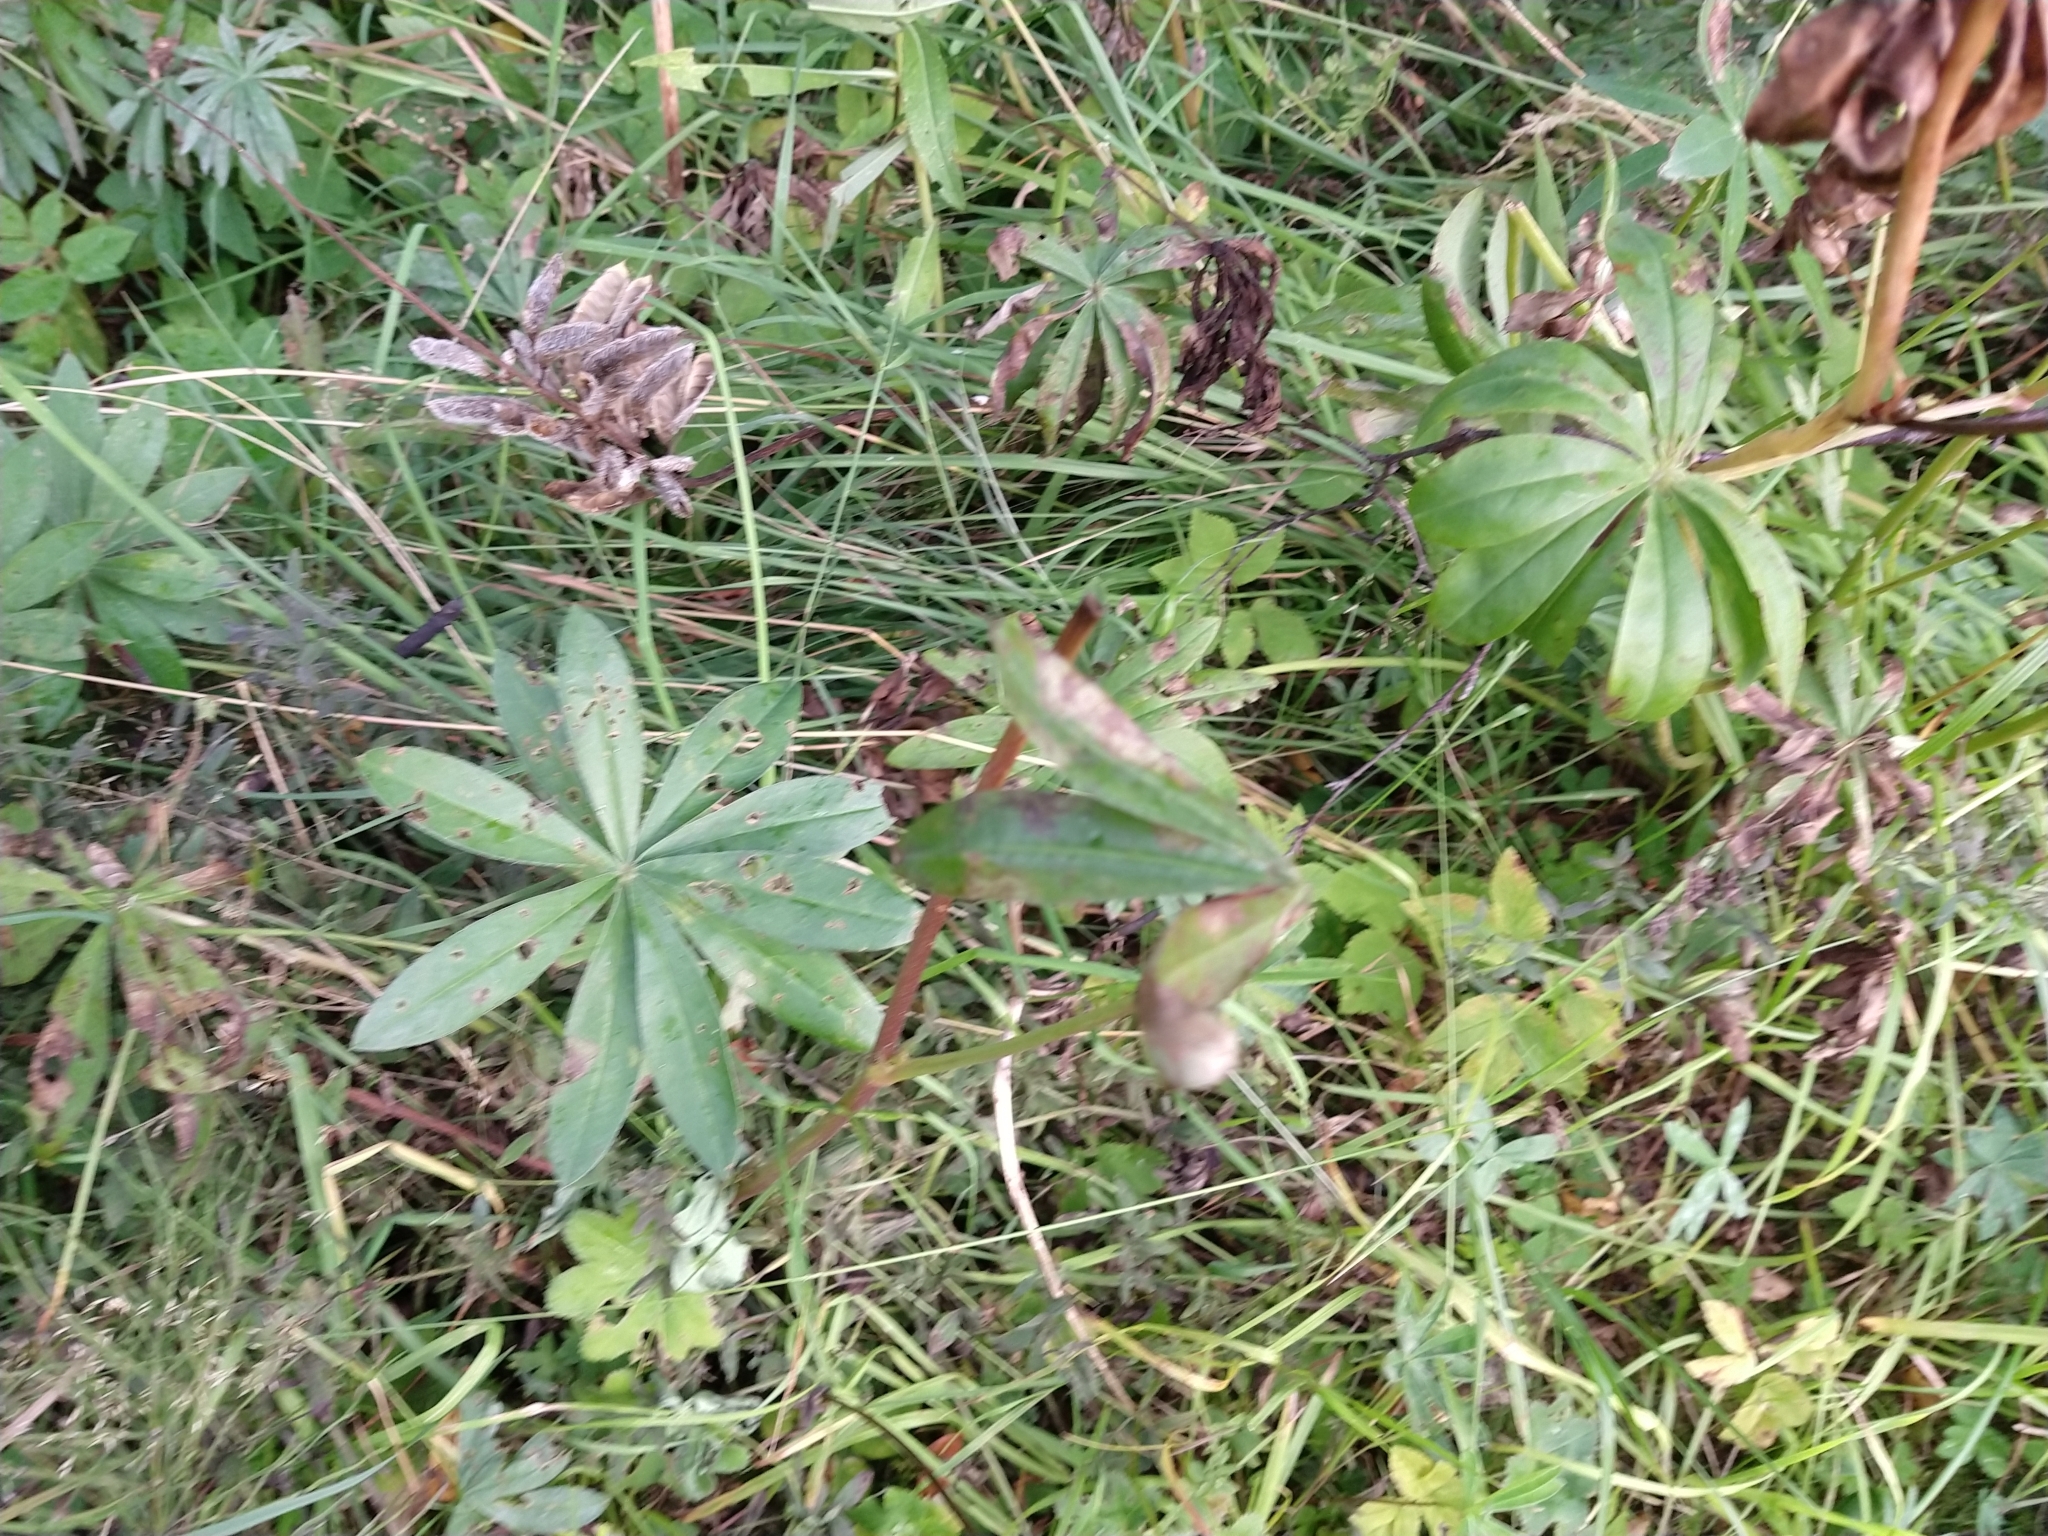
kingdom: Plantae
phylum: Tracheophyta
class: Magnoliopsida
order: Fabales
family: Fabaceae
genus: Lupinus
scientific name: Lupinus polyphyllus
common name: Garden lupin
